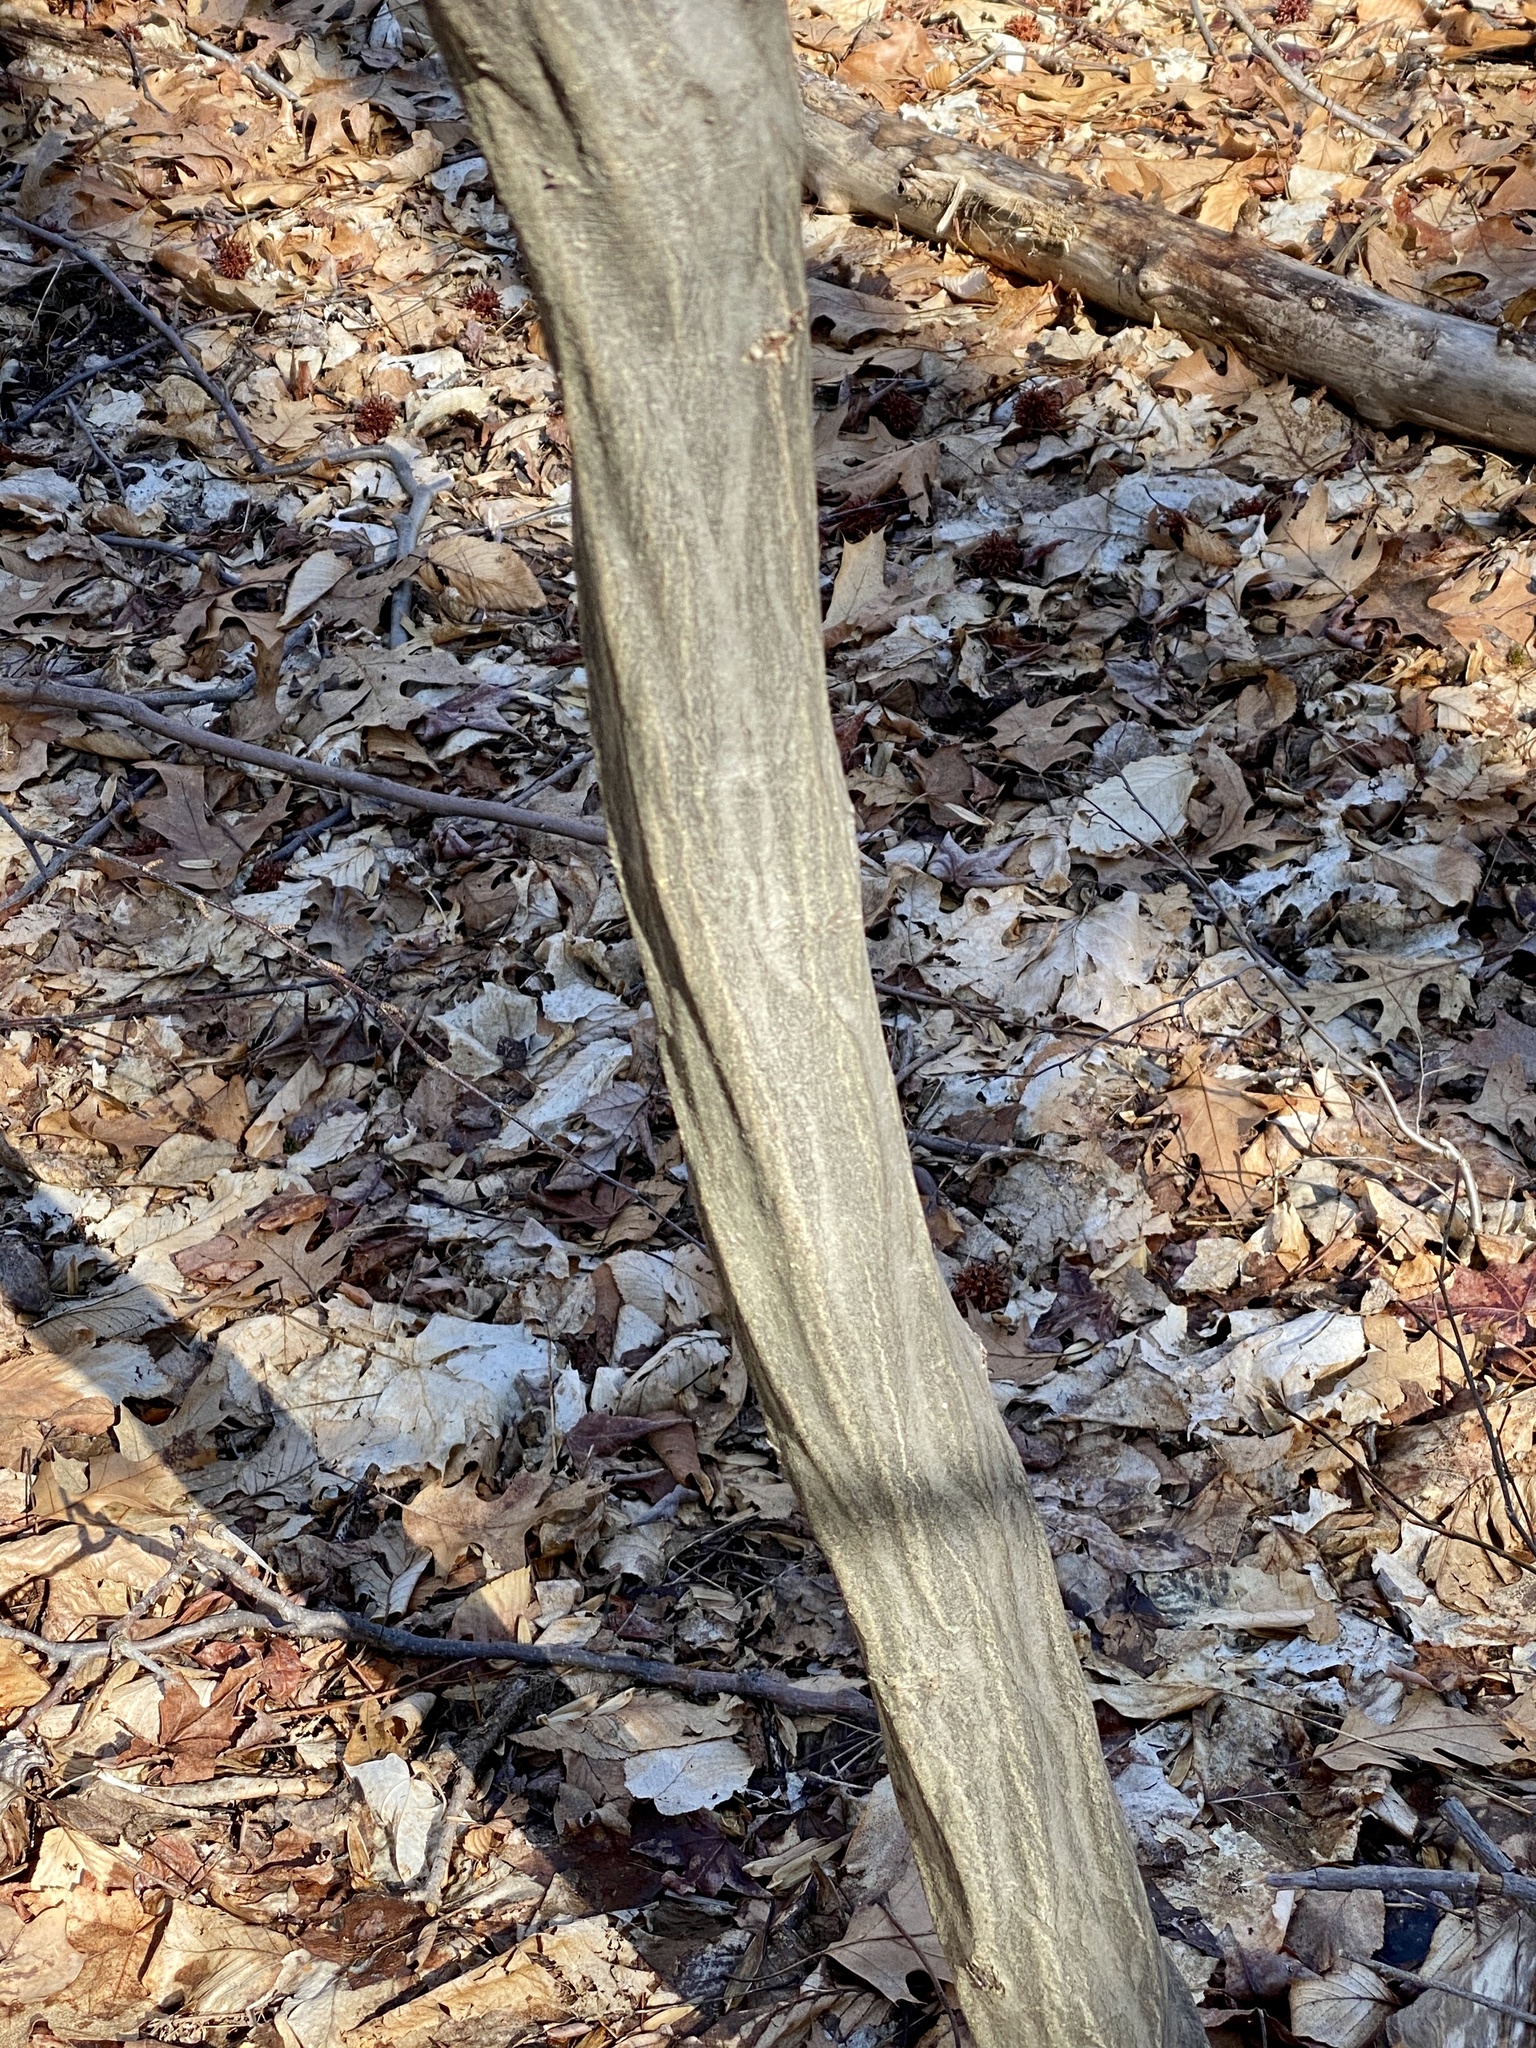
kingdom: Plantae
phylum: Tracheophyta
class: Magnoliopsida
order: Fagales
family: Betulaceae
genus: Carpinus
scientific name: Carpinus caroliniana
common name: American hornbeam
